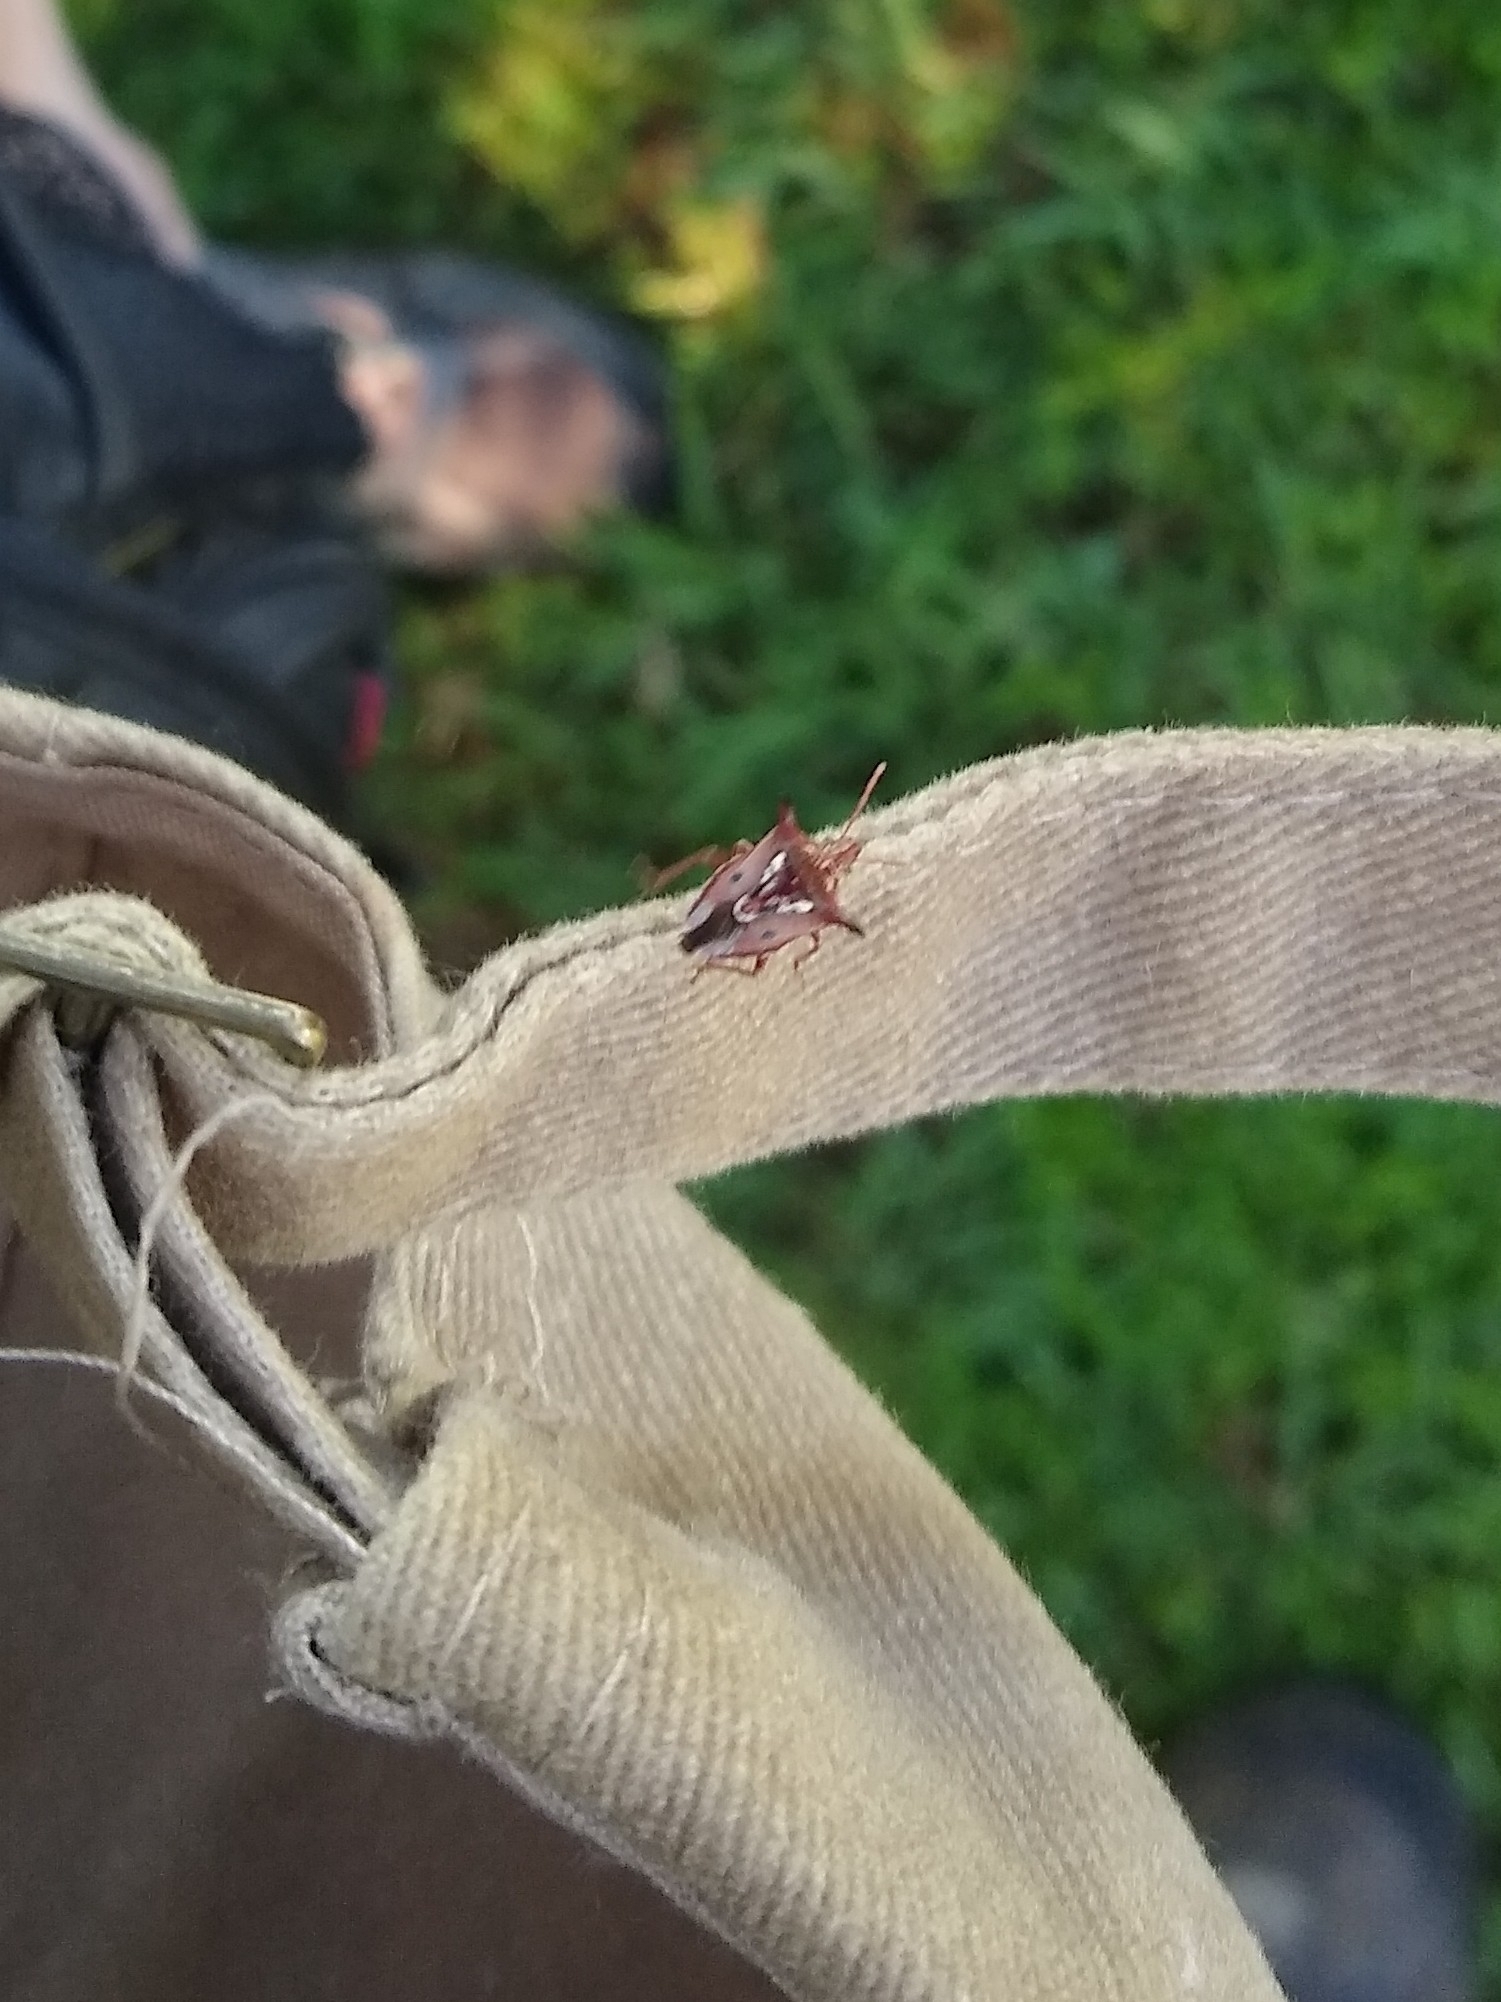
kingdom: Animalia
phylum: Arthropoda
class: Insecta
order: Hemiptera
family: Pentatomidae
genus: Tylospilus
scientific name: Tylospilus nigrobinotatus
